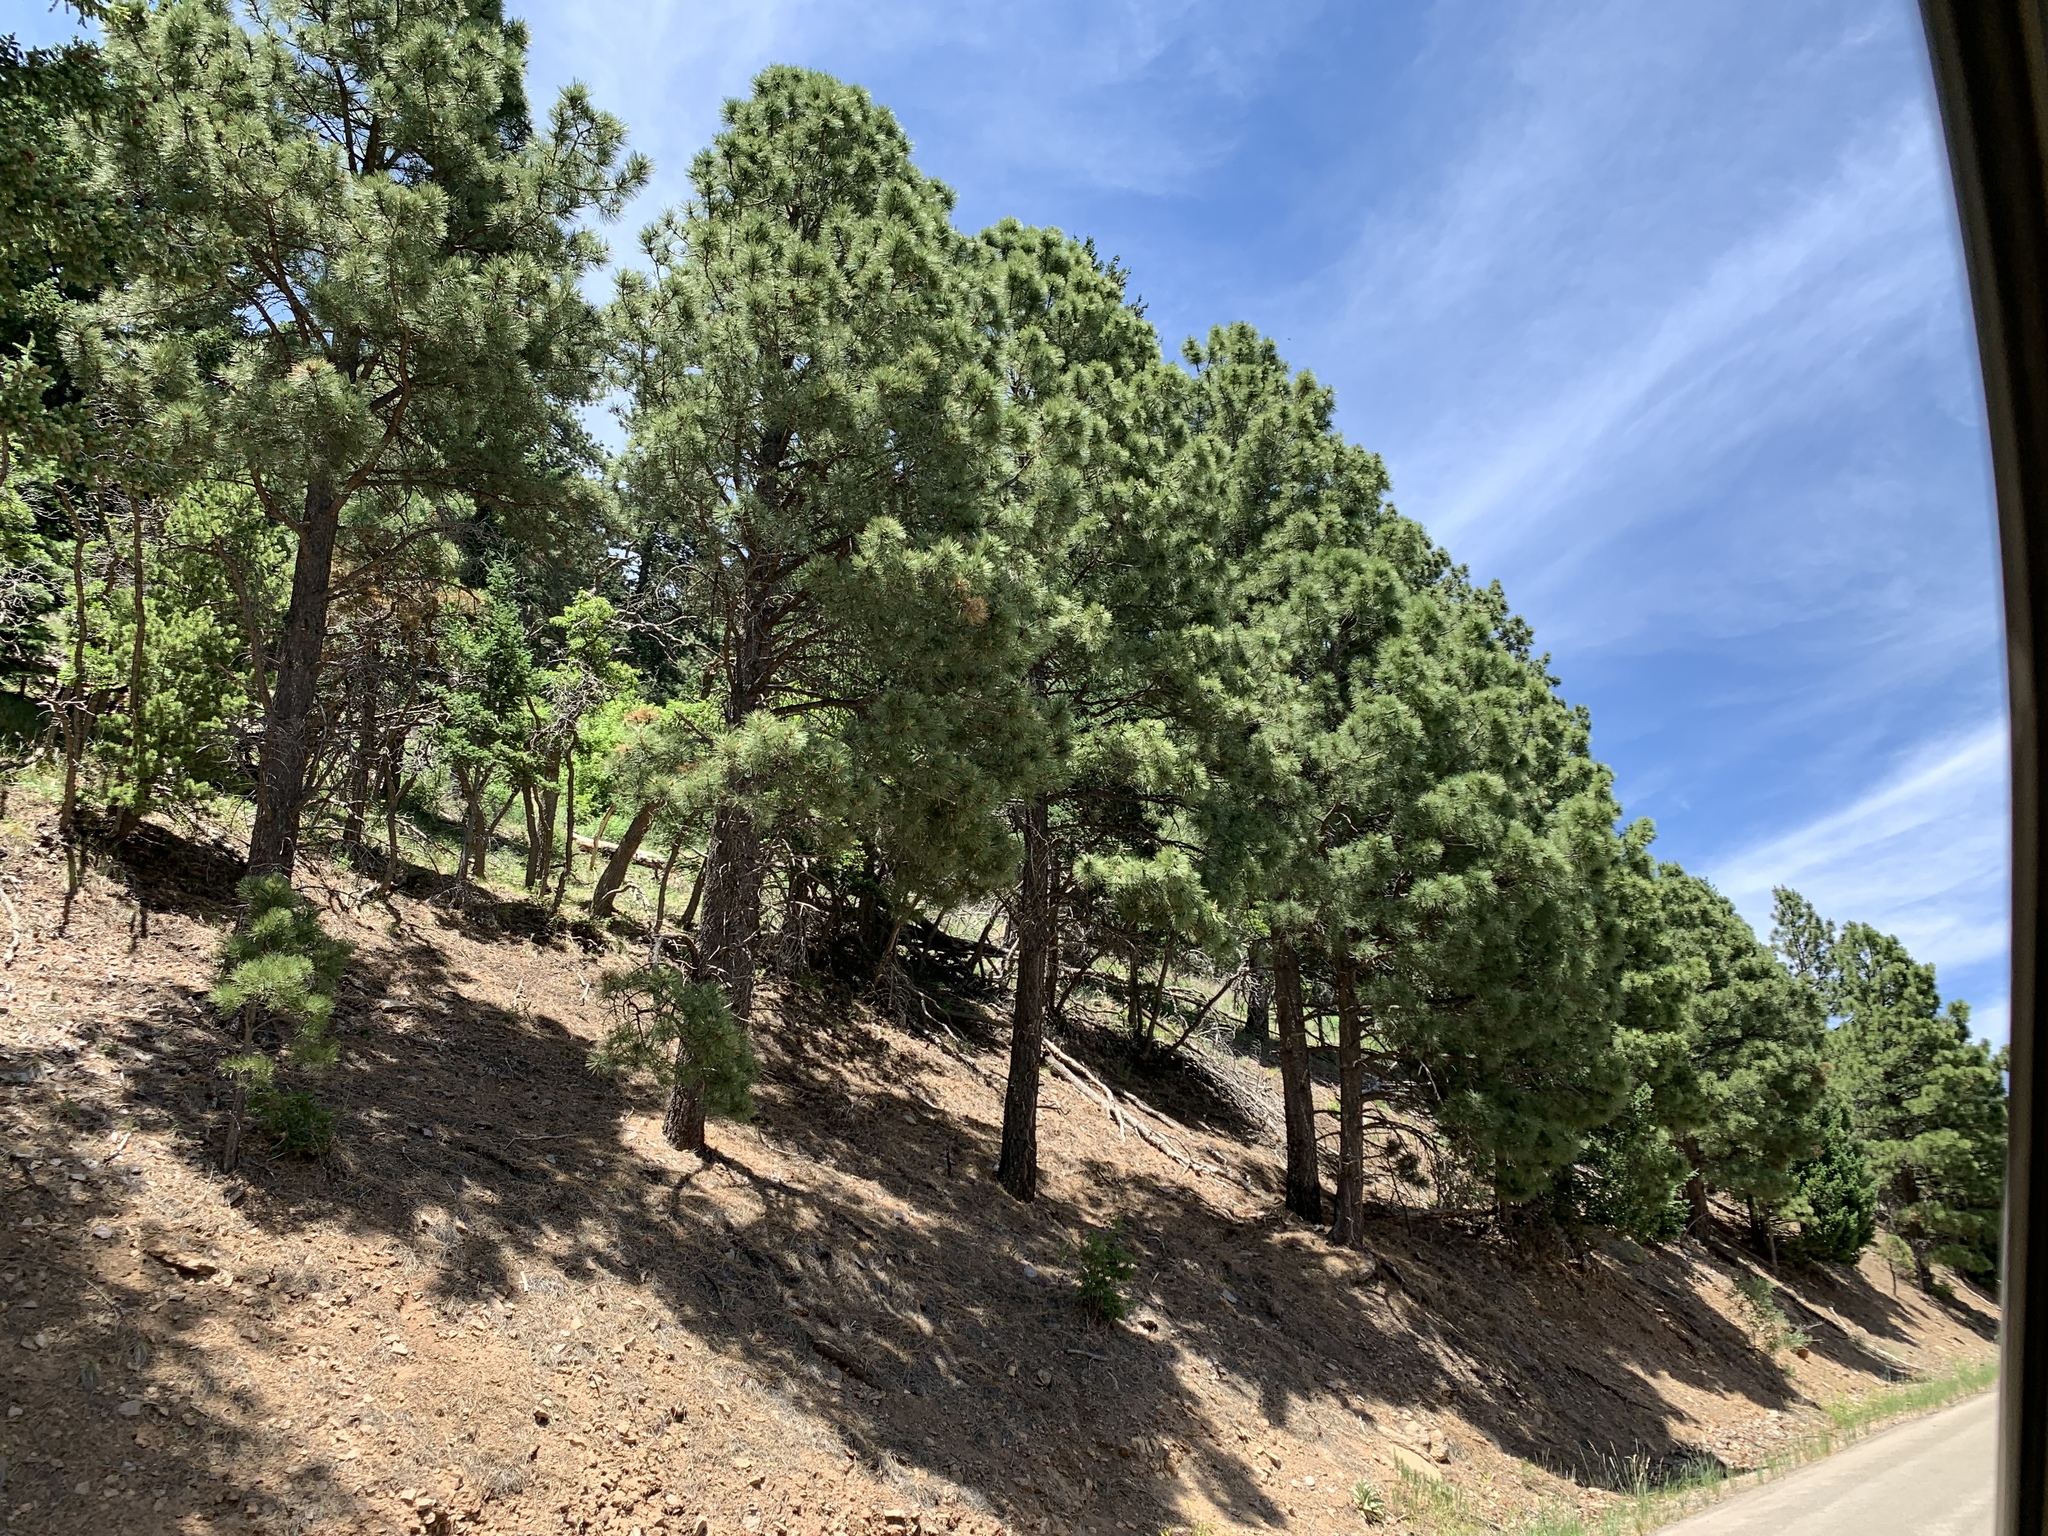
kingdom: Plantae
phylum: Tracheophyta
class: Pinopsida
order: Pinales
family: Pinaceae
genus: Pinus
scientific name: Pinus ponderosa
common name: Western yellow-pine
